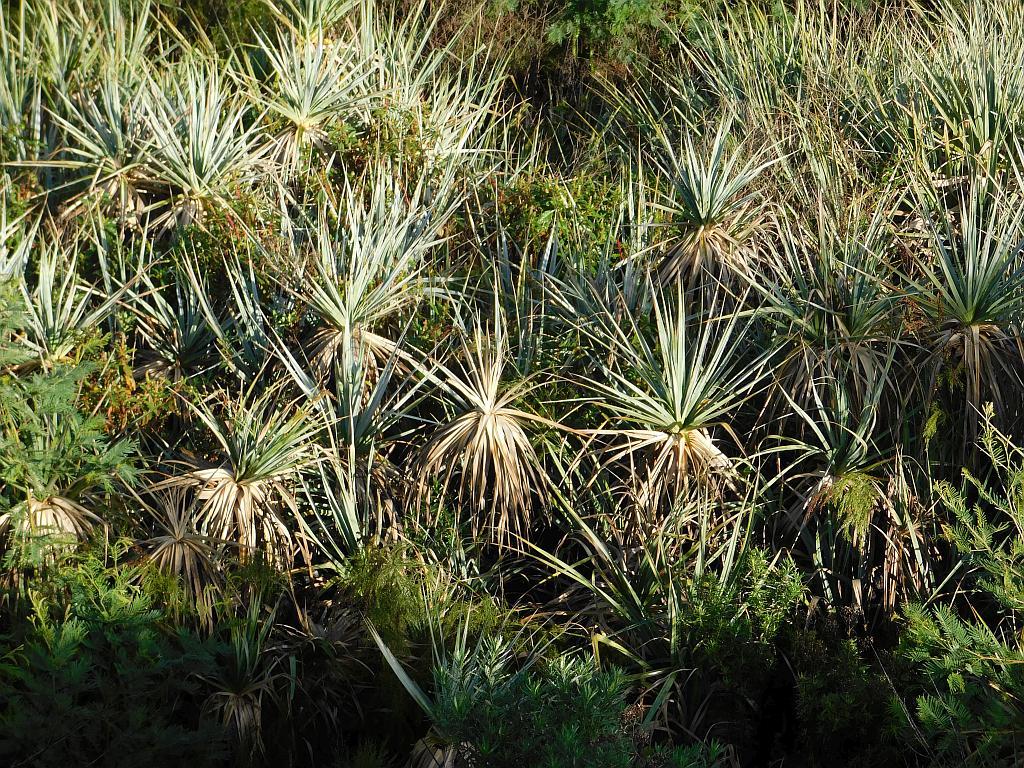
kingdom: Plantae
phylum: Tracheophyta
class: Liliopsida
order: Poales
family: Thurniaceae
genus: Prionium
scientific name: Prionium serratum
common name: Palmiet
